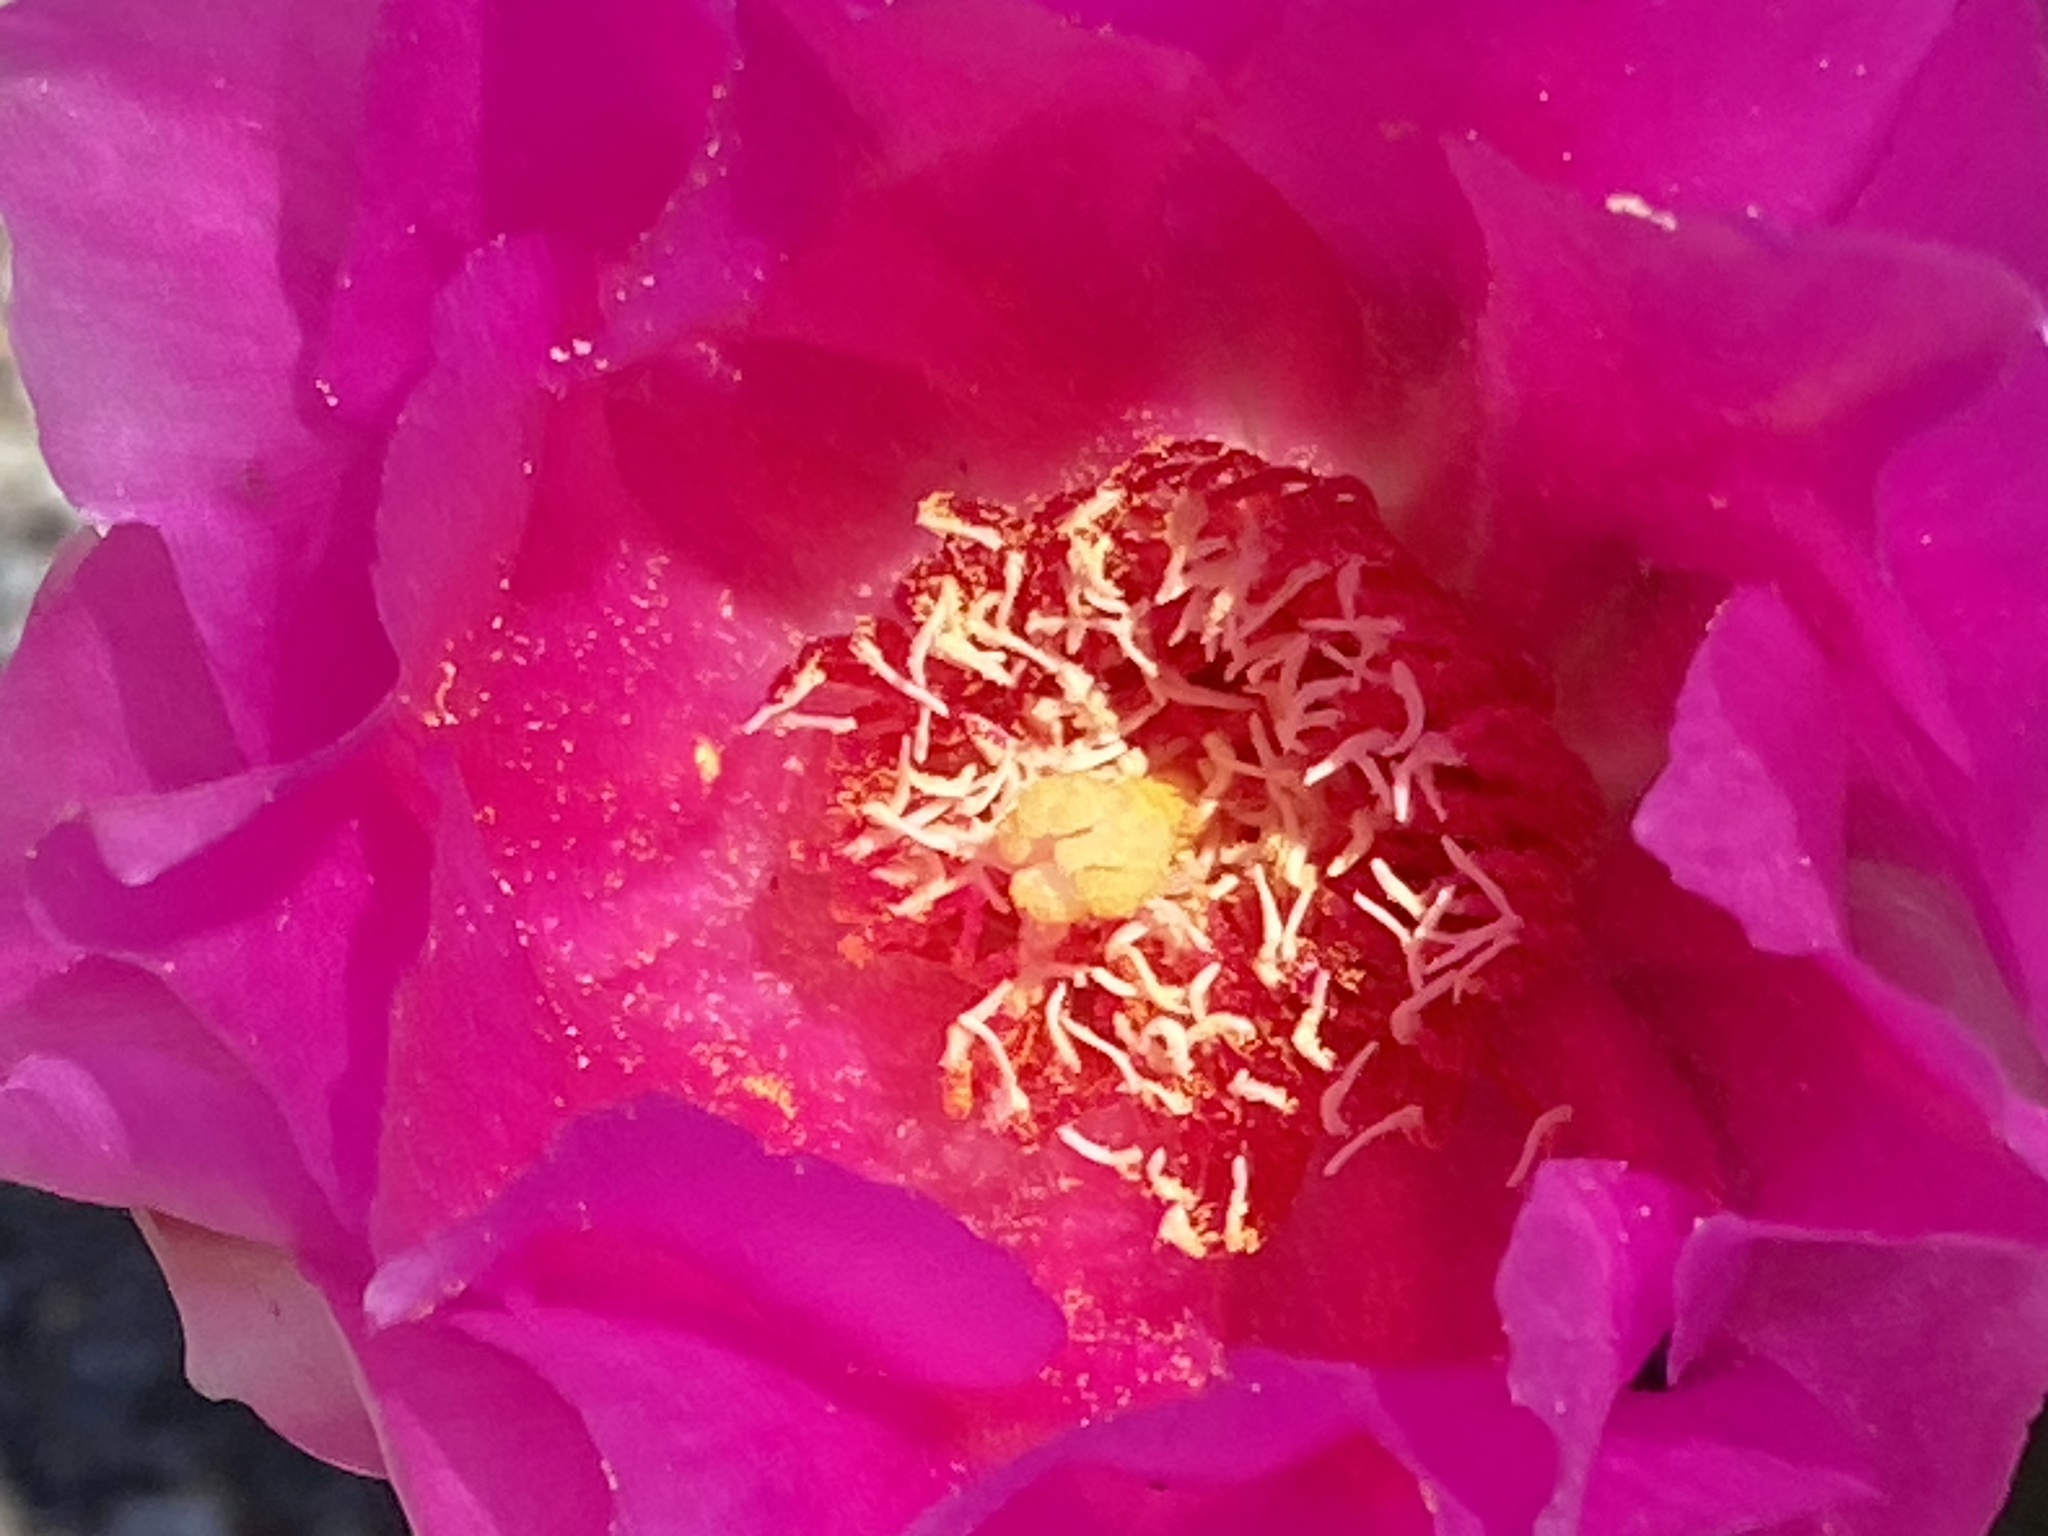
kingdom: Plantae
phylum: Tracheophyta
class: Magnoliopsida
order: Caryophyllales
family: Cactaceae
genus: Opuntia
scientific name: Opuntia basilaris
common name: Beavertail prickly-pear
